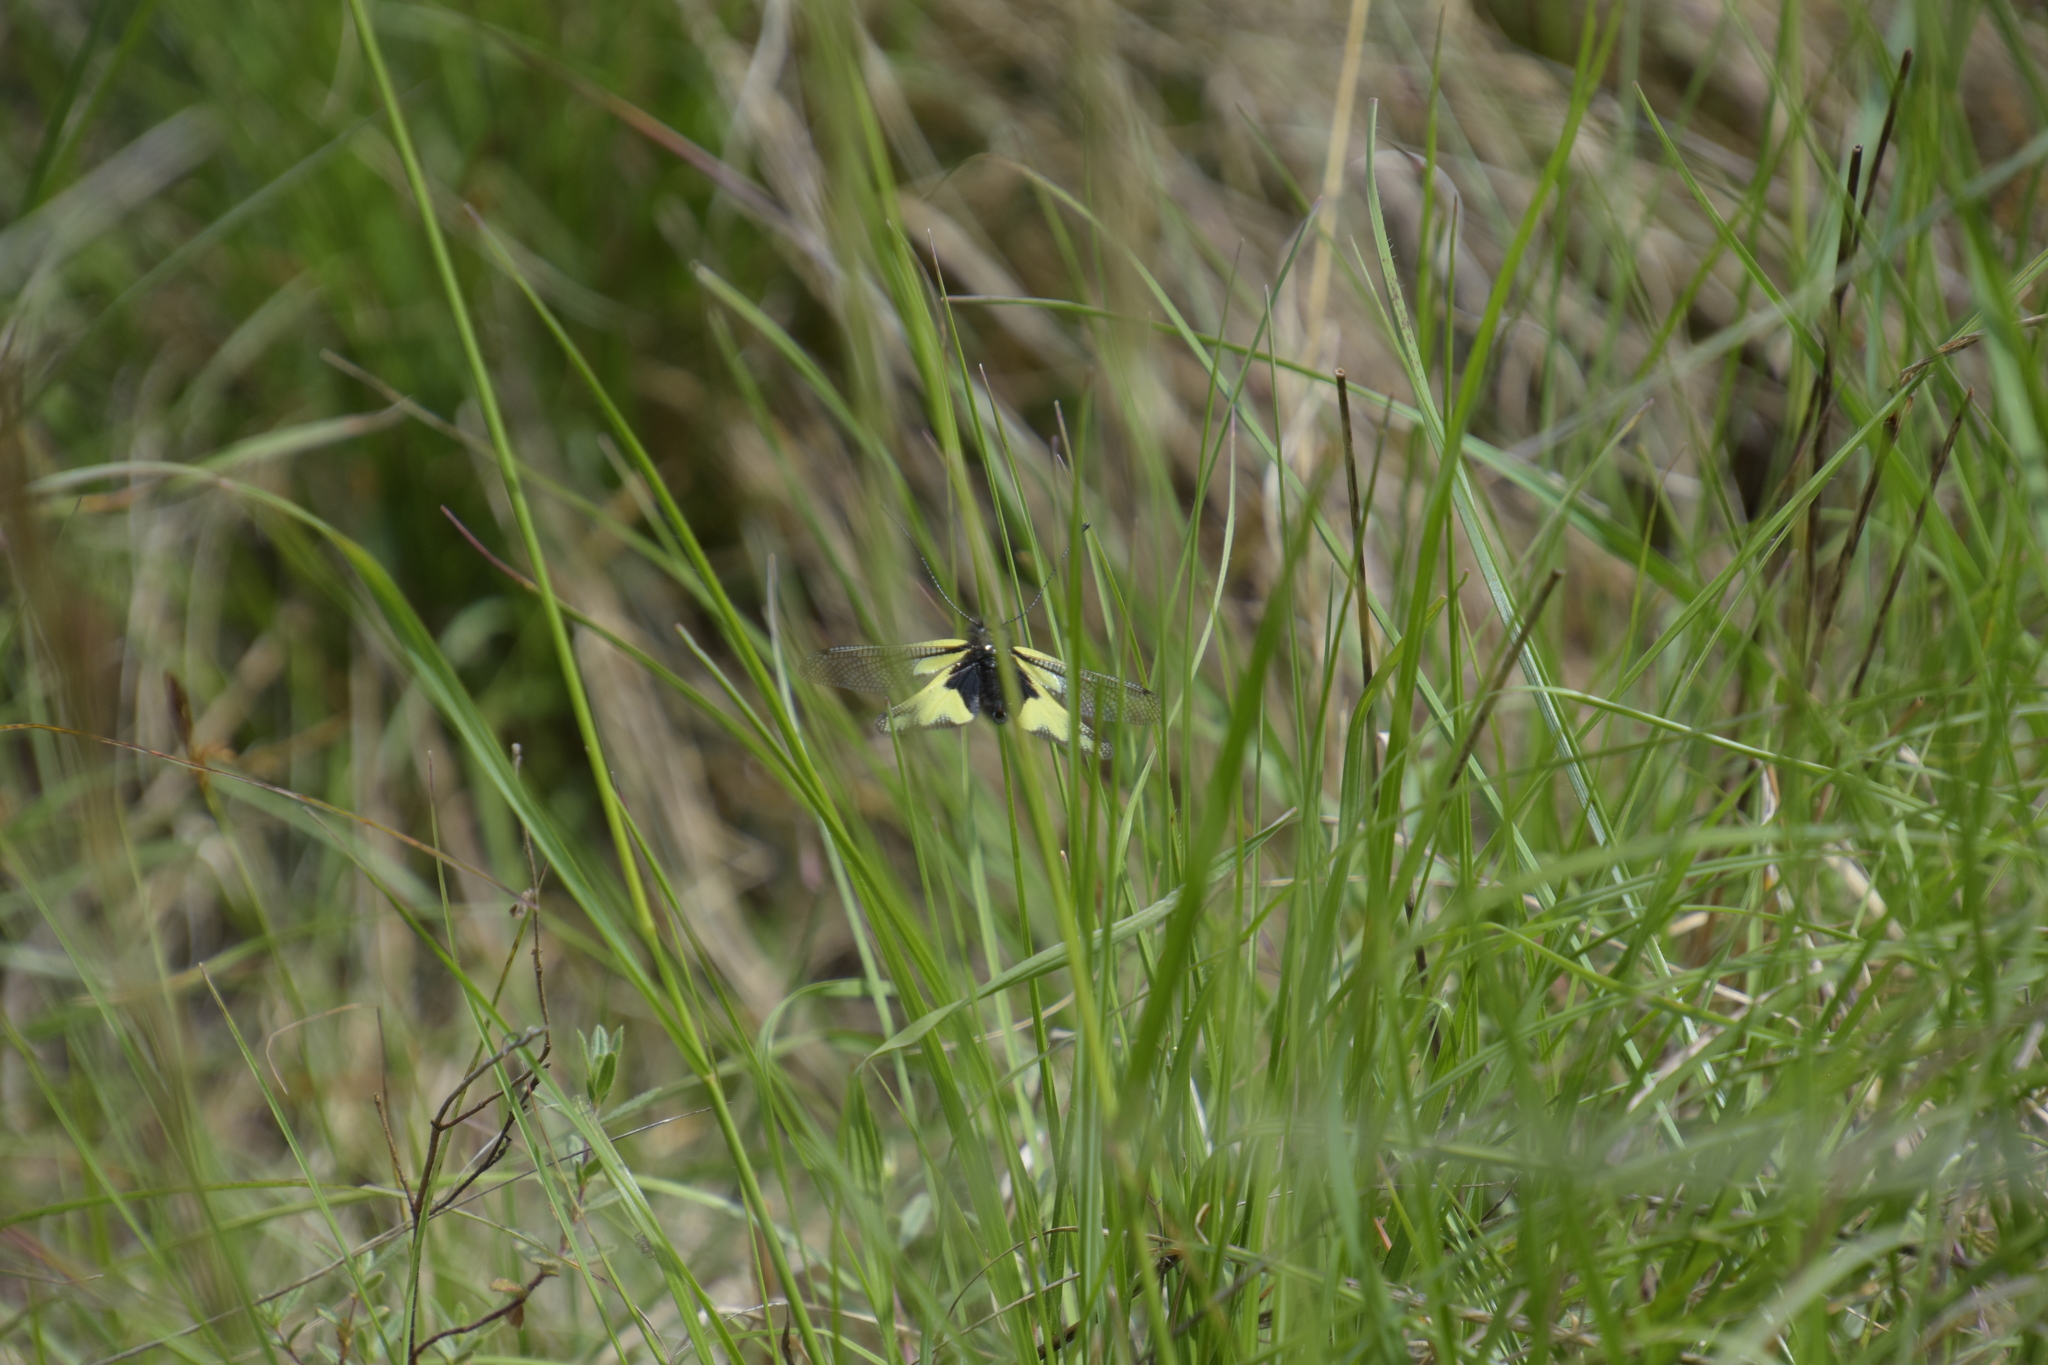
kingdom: Animalia
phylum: Arthropoda
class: Insecta
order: Neuroptera
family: Ascalaphidae
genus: Libelloides
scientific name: Libelloides coccajus
